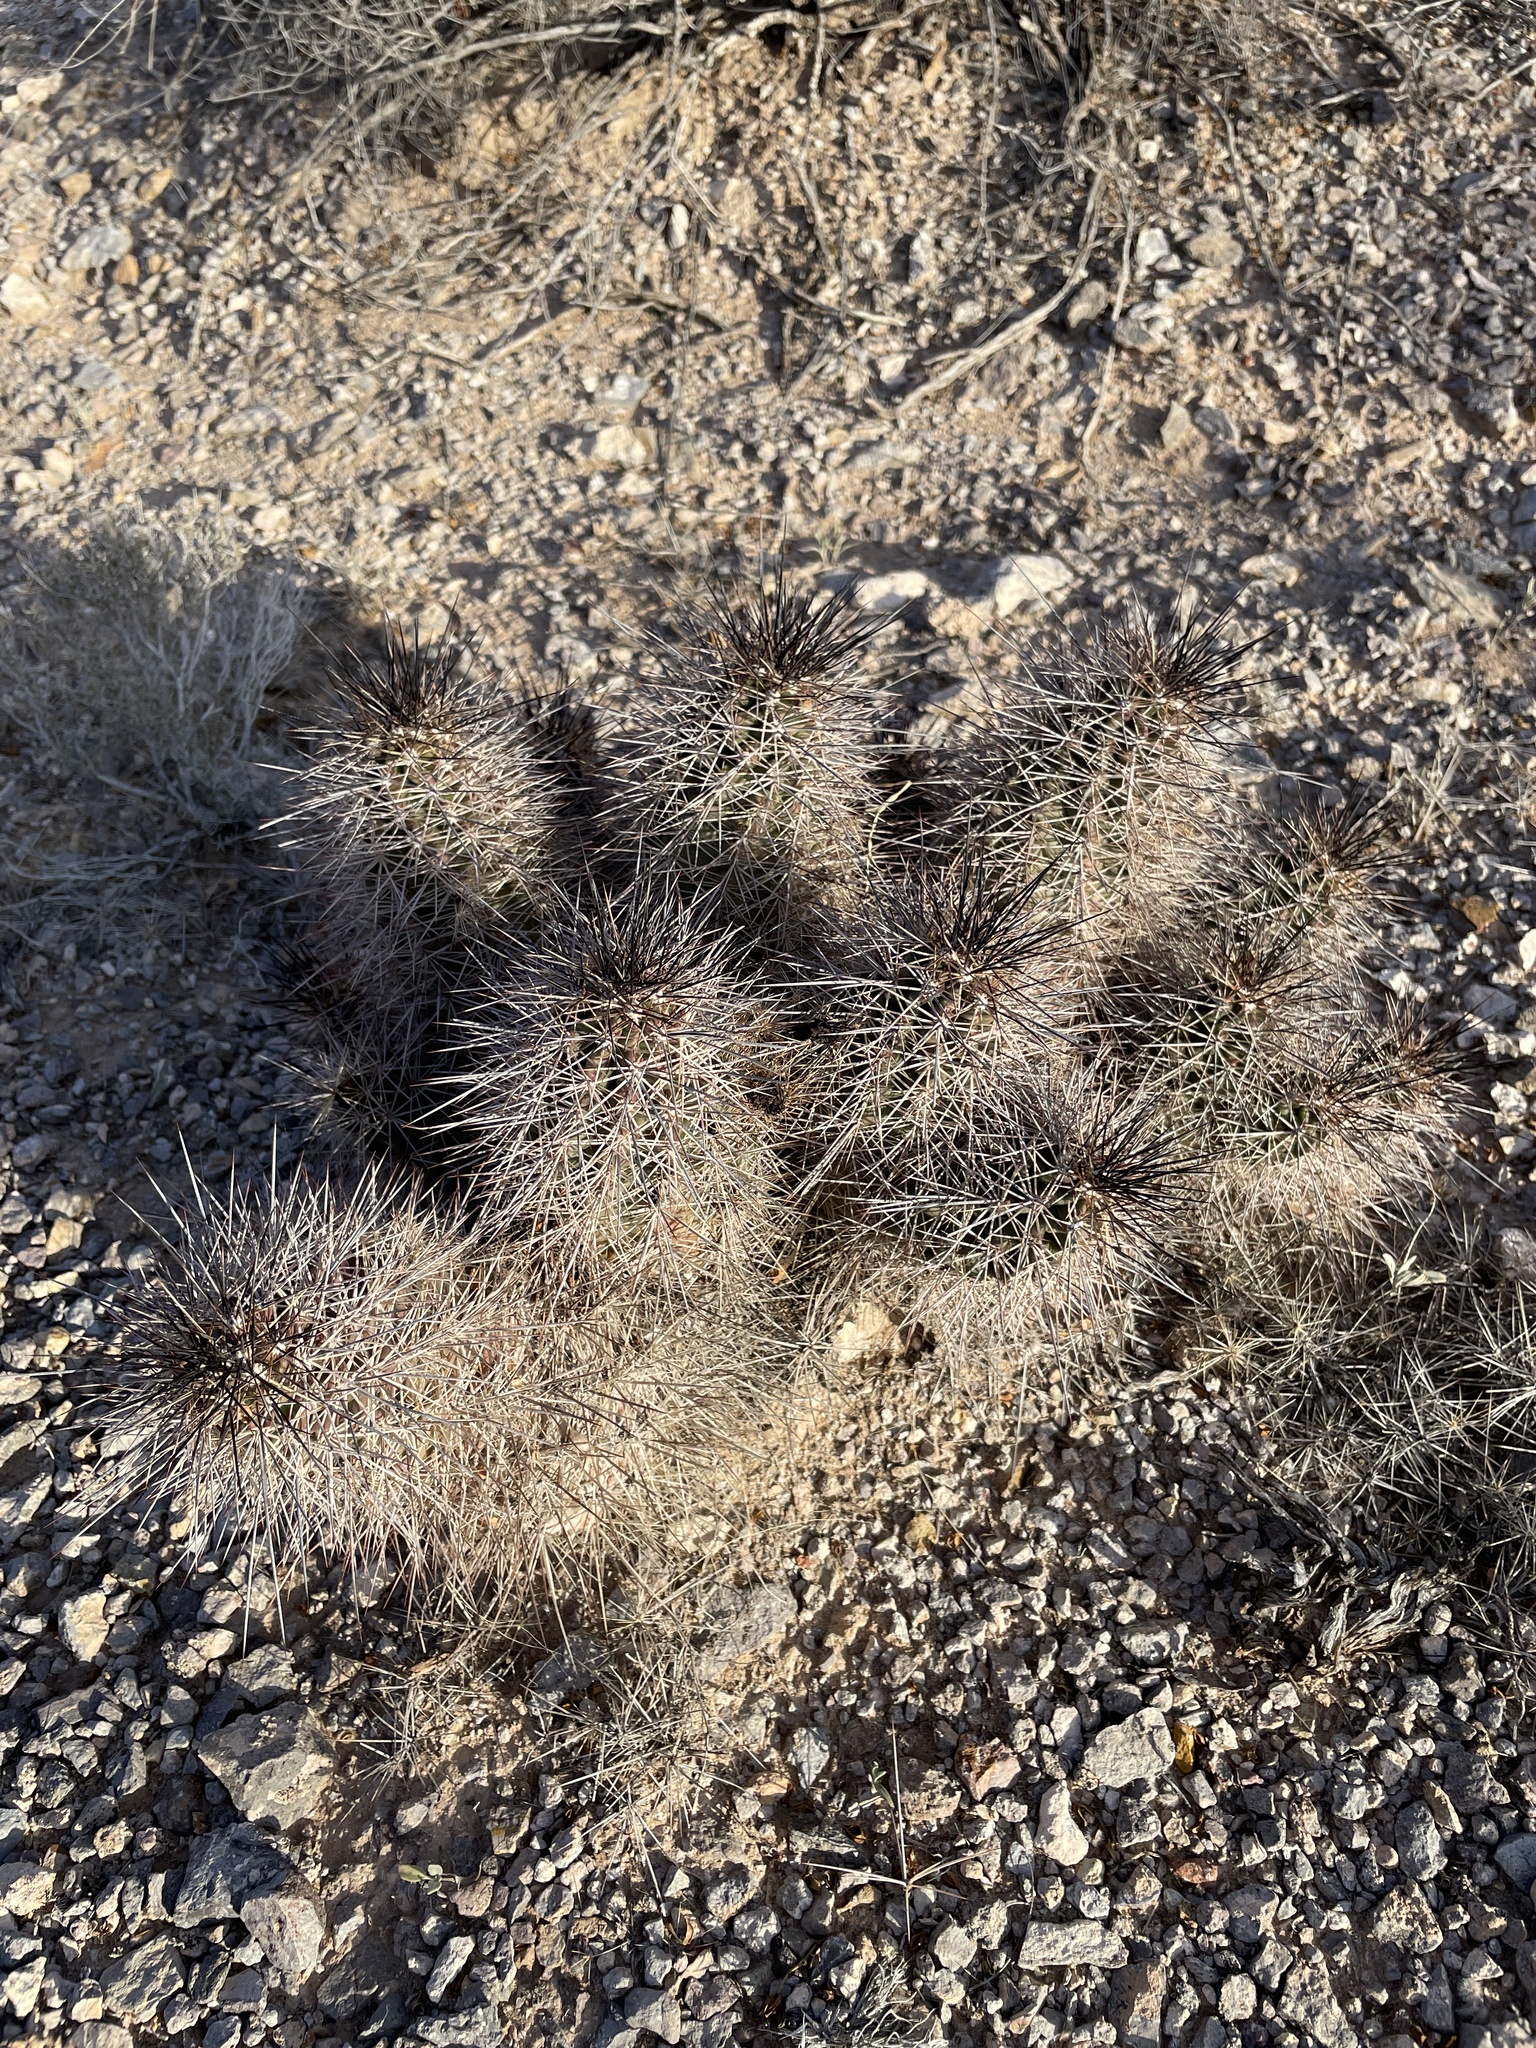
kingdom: Plantae
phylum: Tracheophyta
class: Magnoliopsida
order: Caryophyllales
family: Cactaceae
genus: Echinocereus
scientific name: Echinocereus coccineus
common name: Scarlet hedgehog cactus
